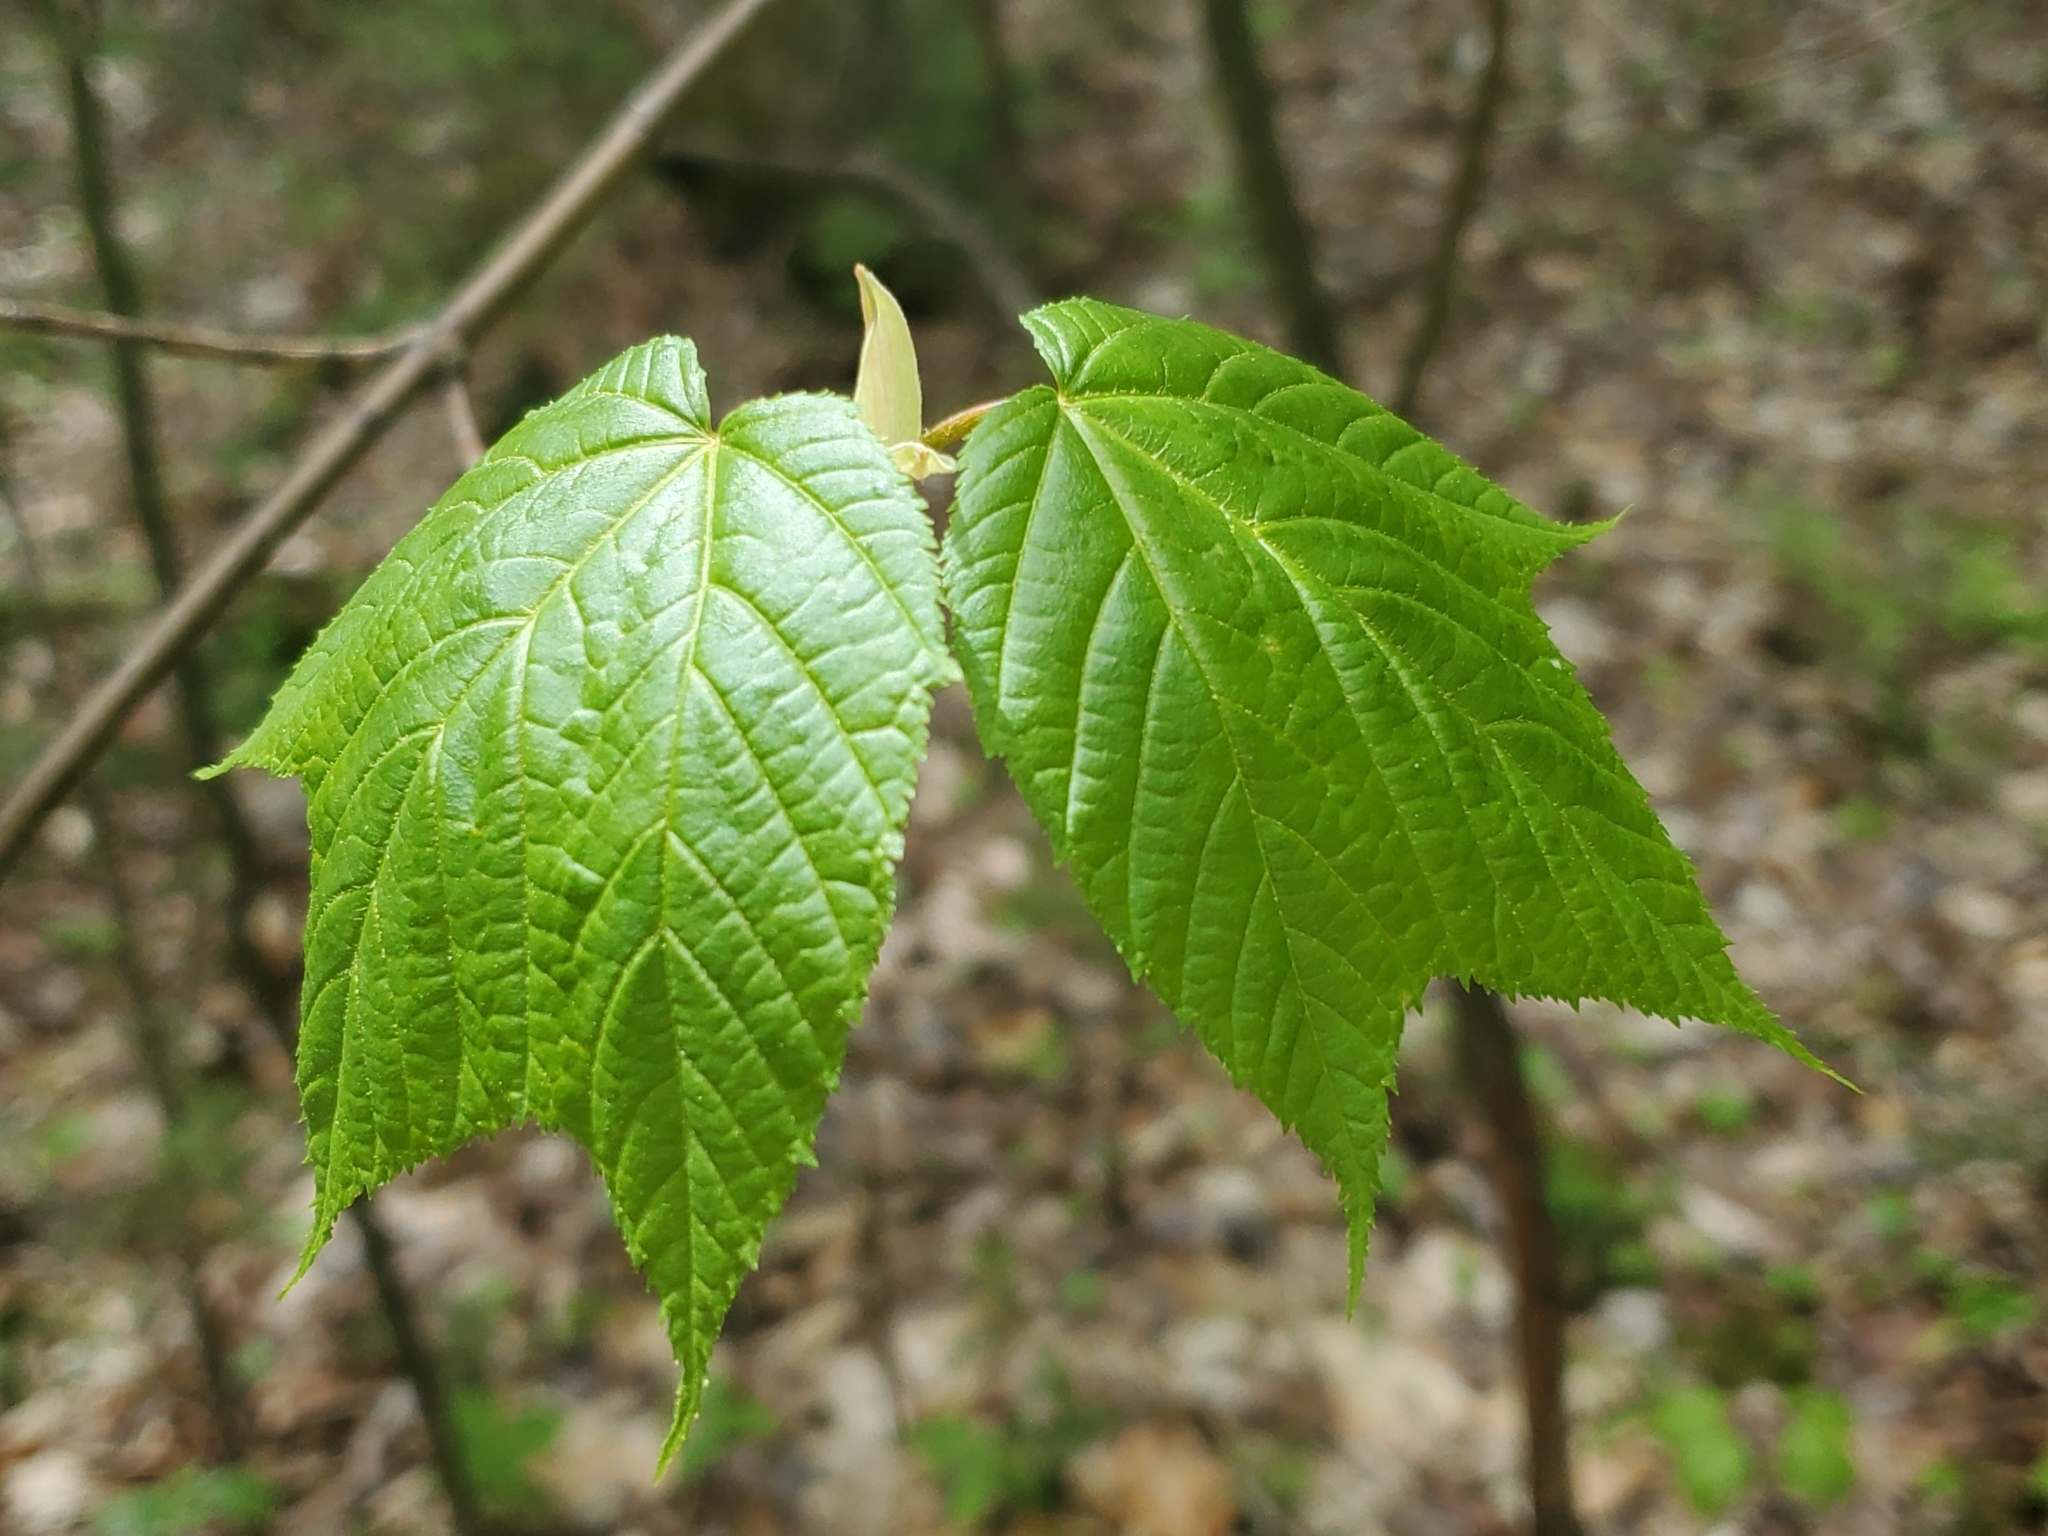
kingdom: Plantae
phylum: Tracheophyta
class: Magnoliopsida
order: Sapindales
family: Sapindaceae
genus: Acer
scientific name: Acer pensylvanicum
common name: Moosewood
